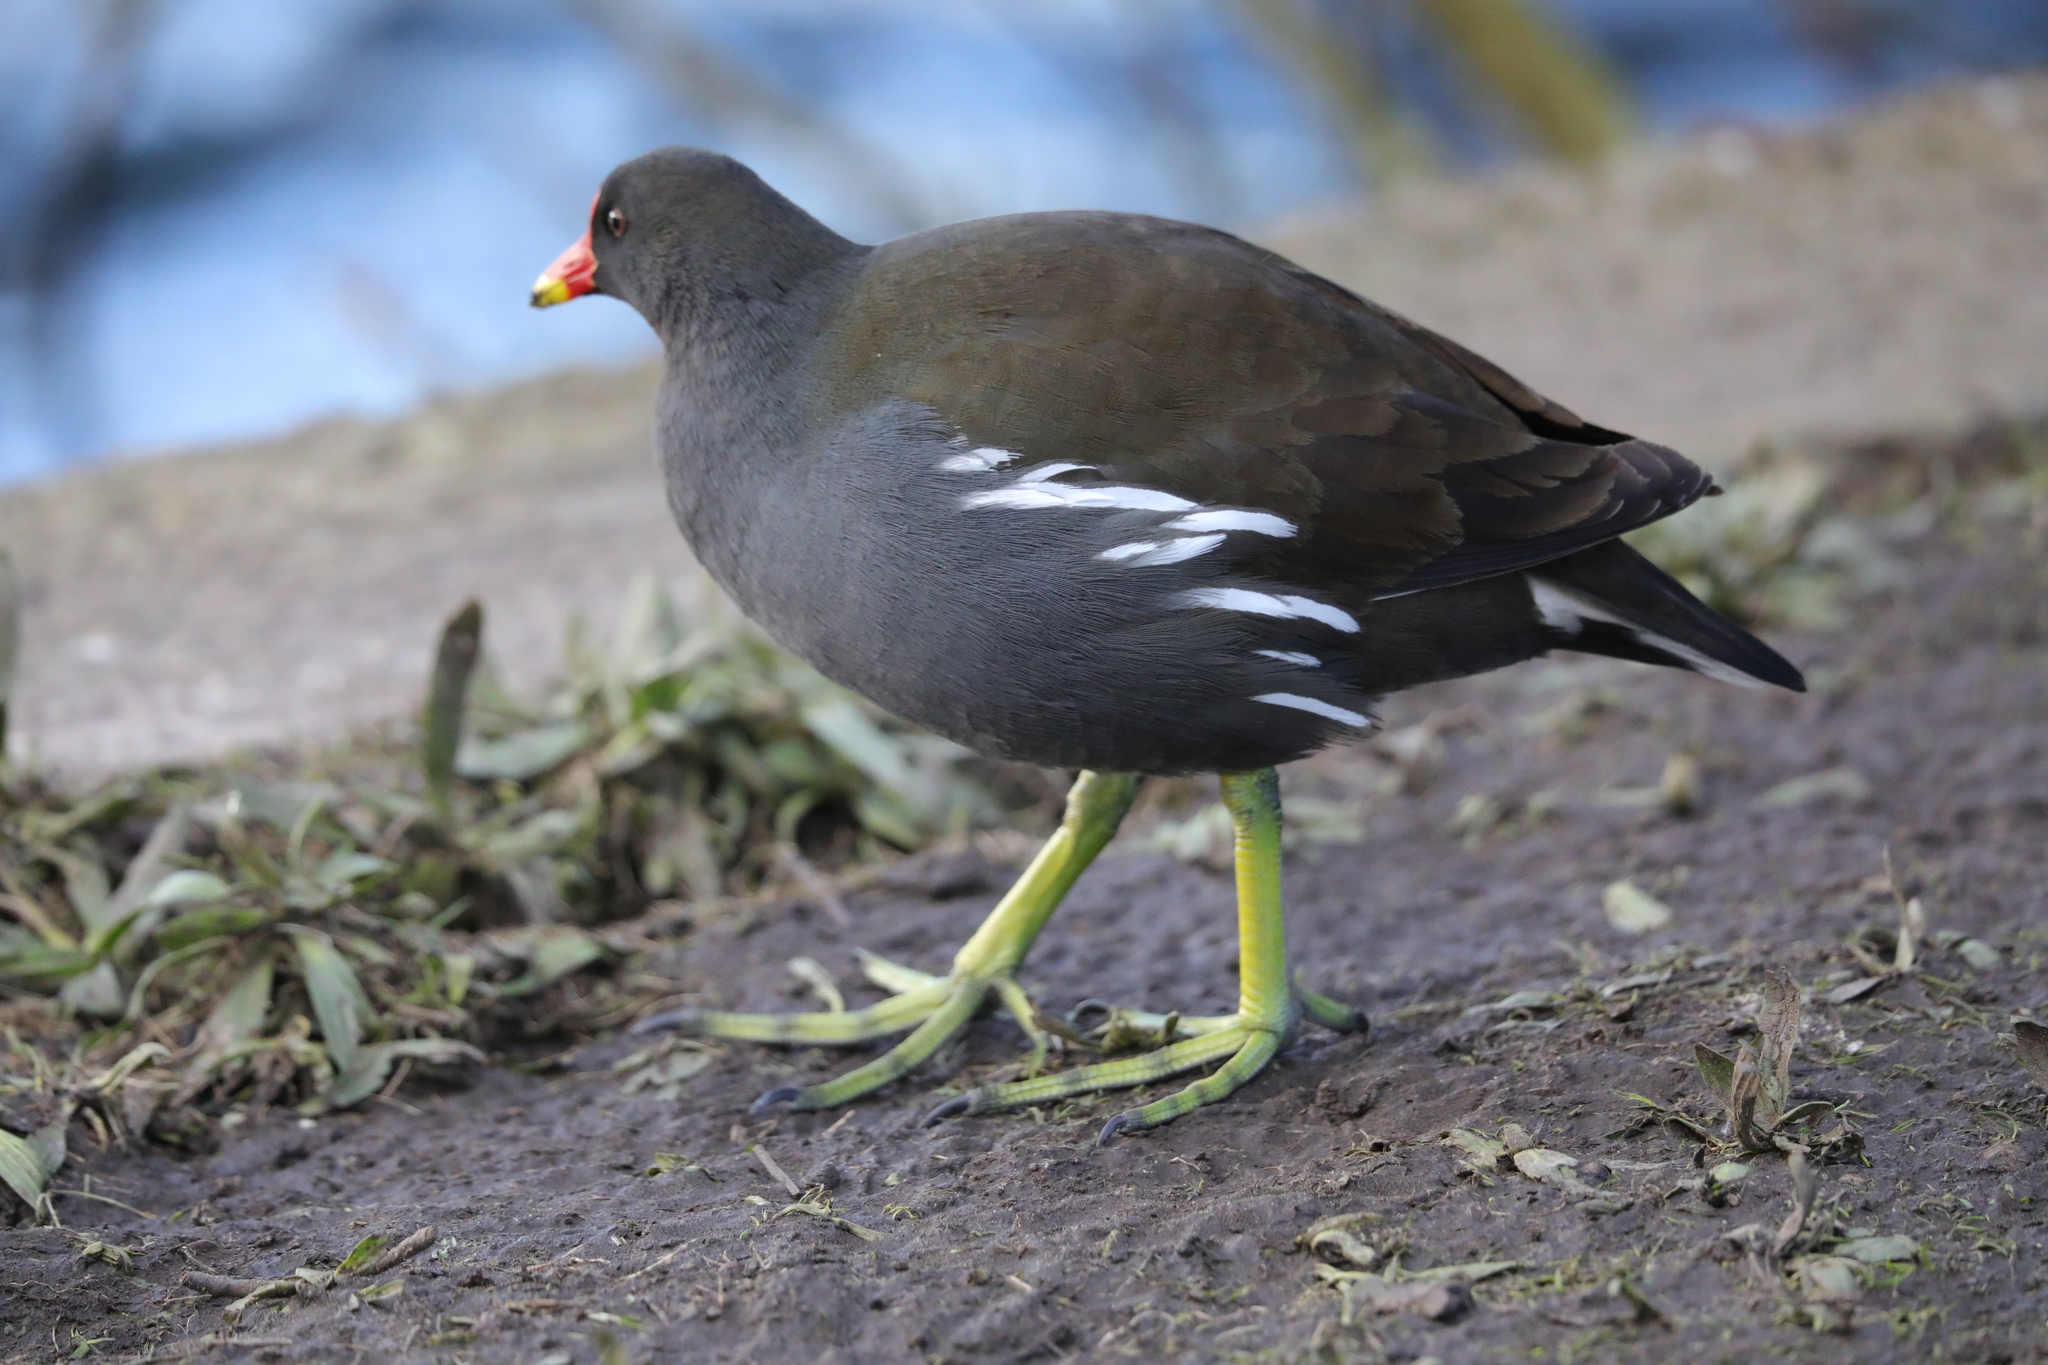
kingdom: Animalia
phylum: Chordata
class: Aves
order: Gruiformes
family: Rallidae
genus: Gallinula
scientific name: Gallinula chloropus
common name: Common moorhen
